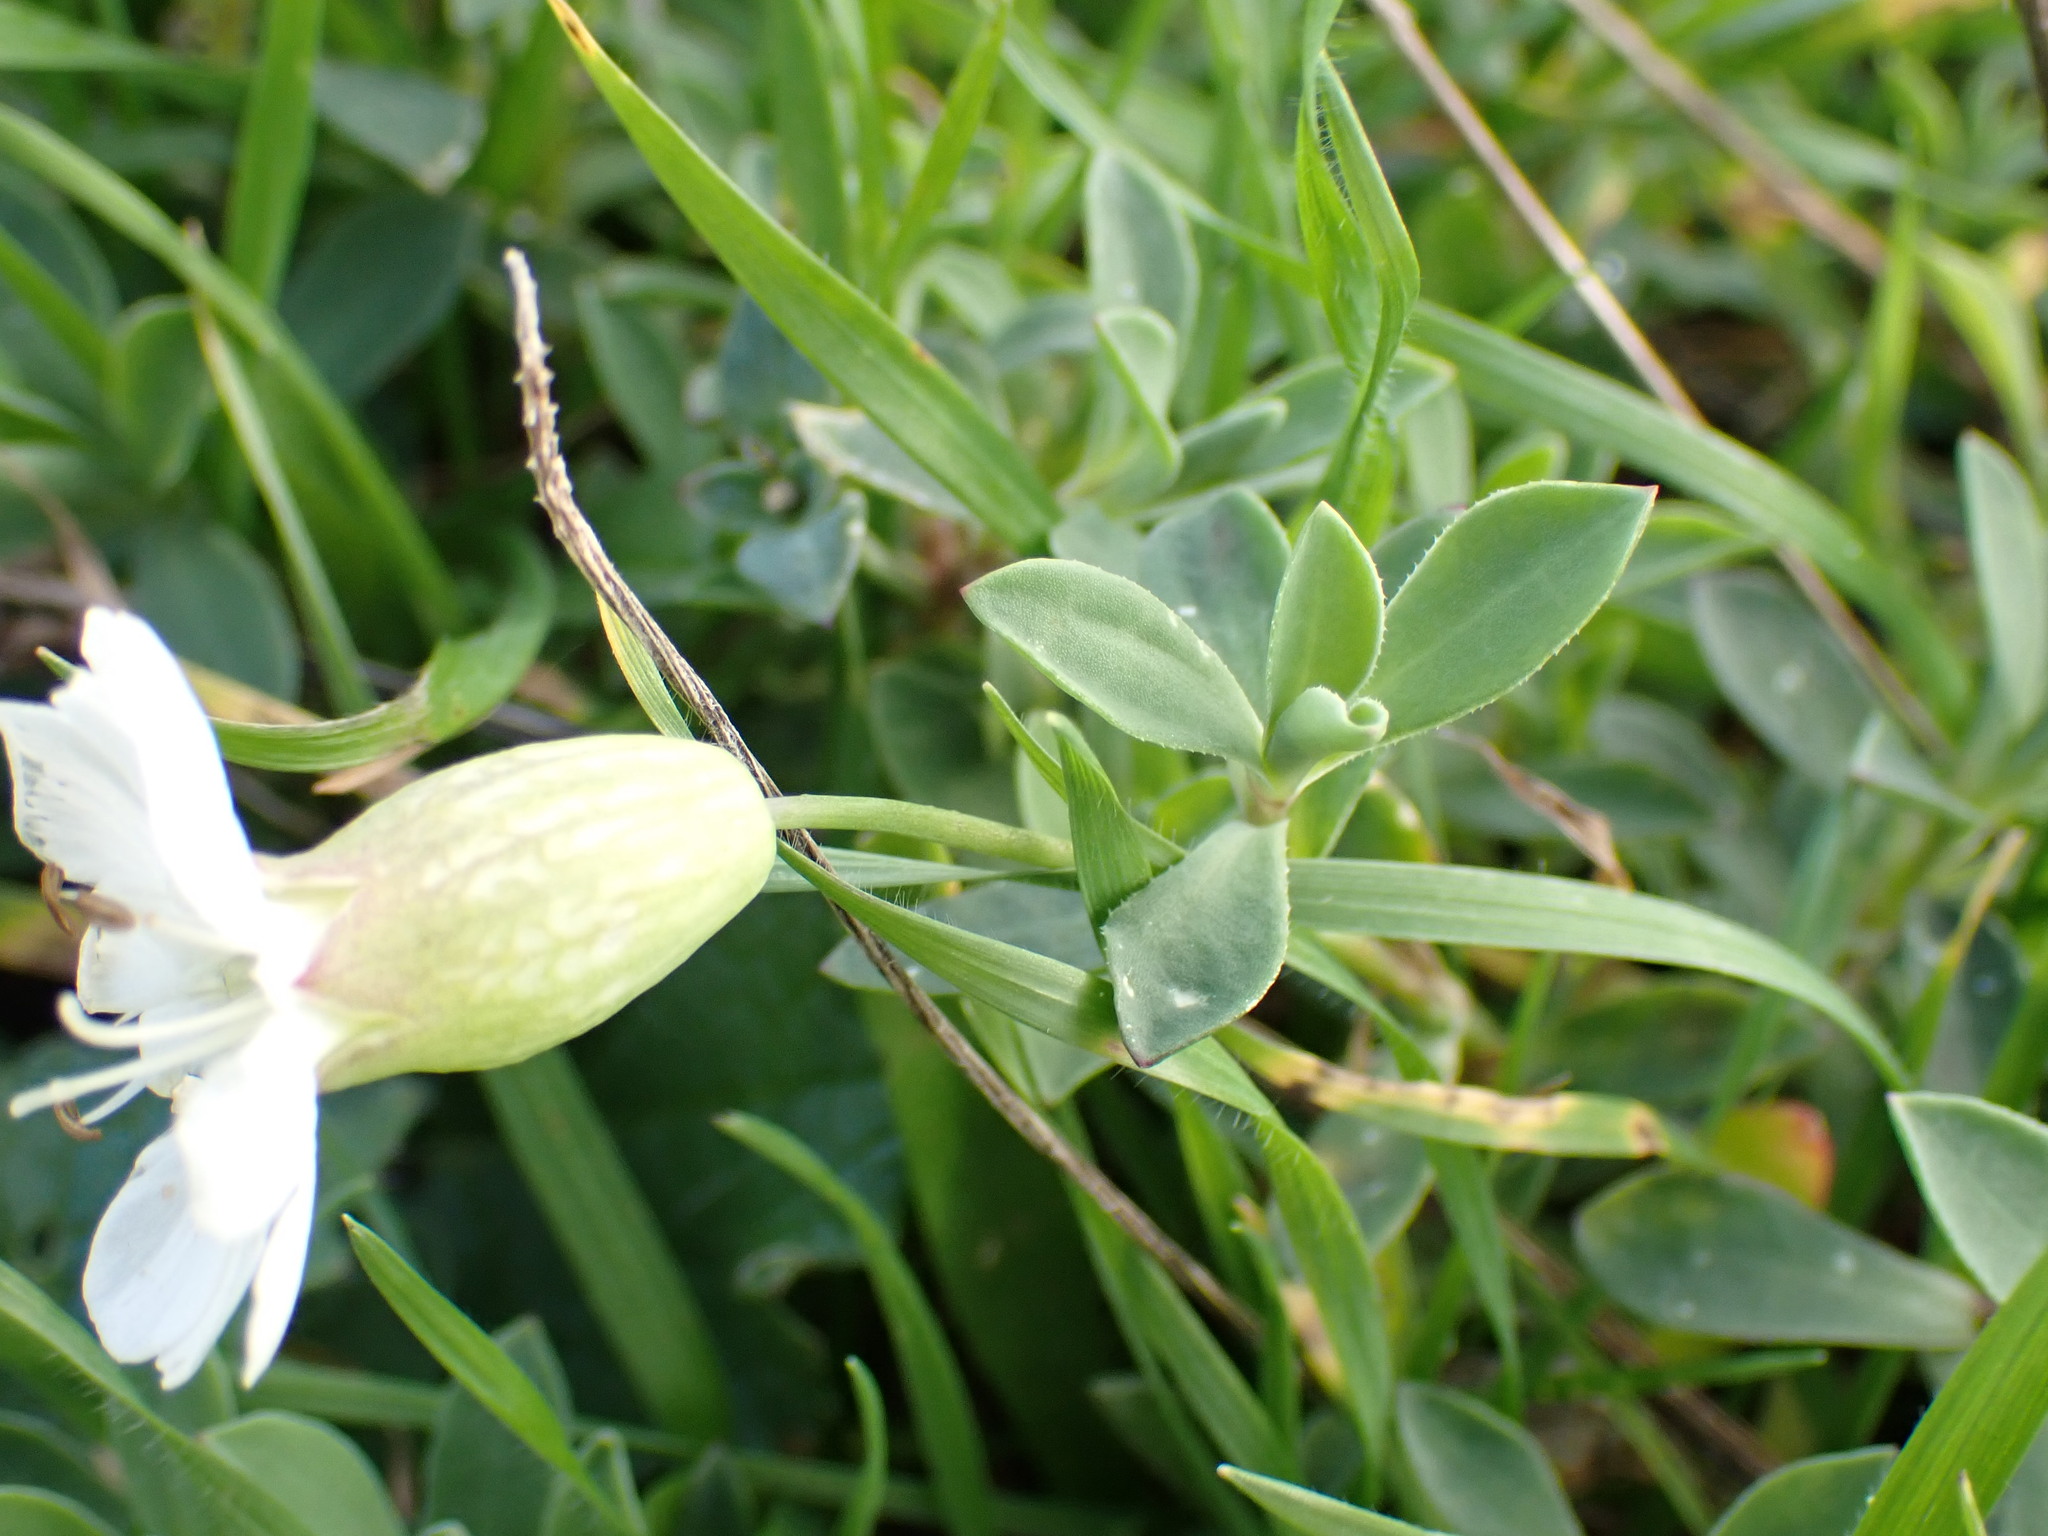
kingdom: Plantae
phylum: Tracheophyta
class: Magnoliopsida
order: Caryophyllales
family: Caryophyllaceae
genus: Silene
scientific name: Silene uniflora
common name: Sea campion
